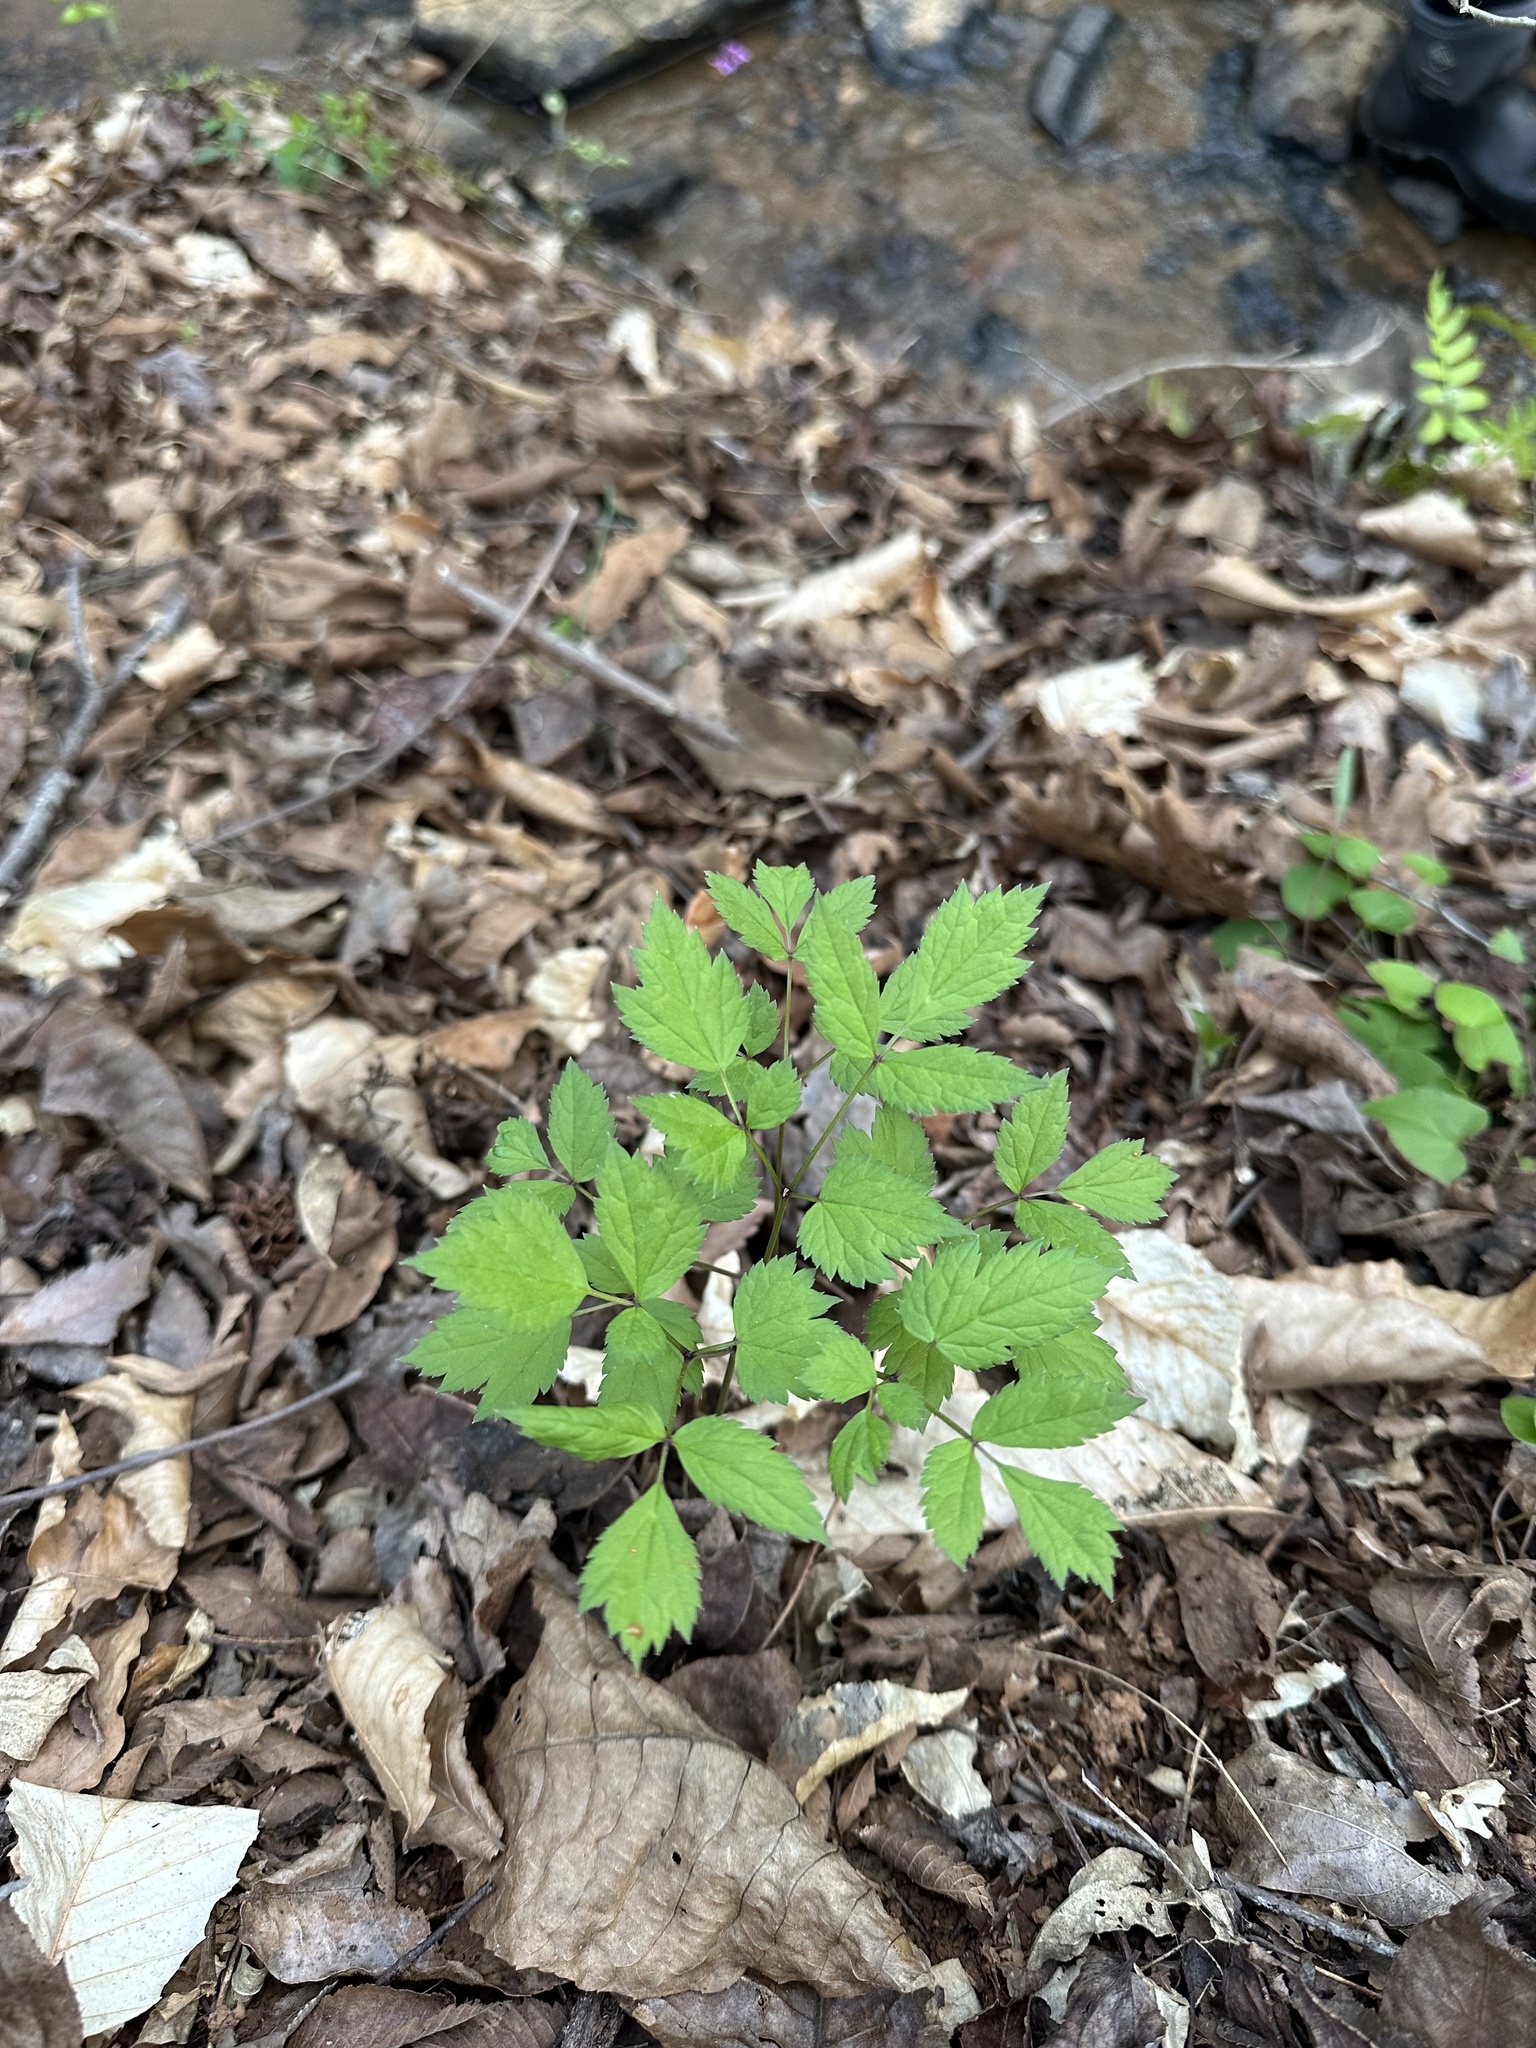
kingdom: Plantae
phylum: Tracheophyta
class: Magnoliopsida
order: Ranunculales
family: Ranunculaceae
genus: Actaea
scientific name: Actaea racemosa
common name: Black cohosh
